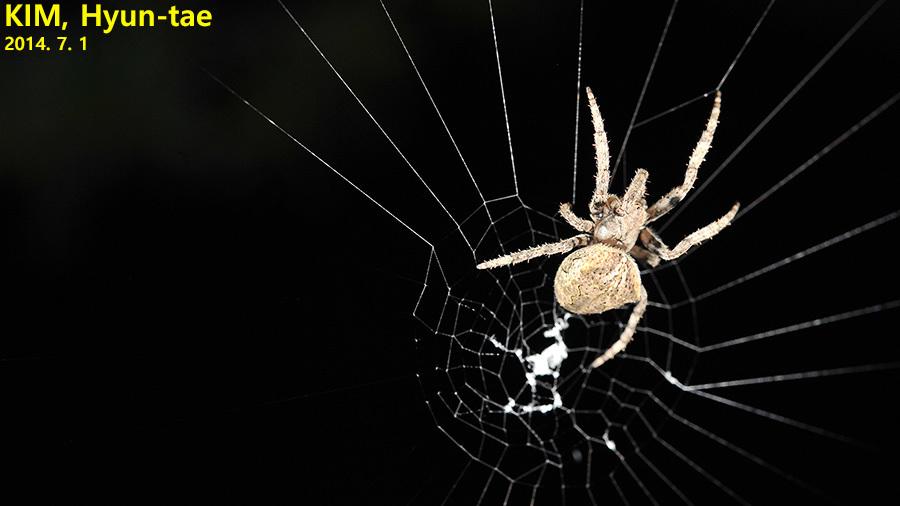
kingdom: Animalia
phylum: Arthropoda
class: Arachnida
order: Araneae
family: Araneidae
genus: Araneus
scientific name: Araneus ventricosus
